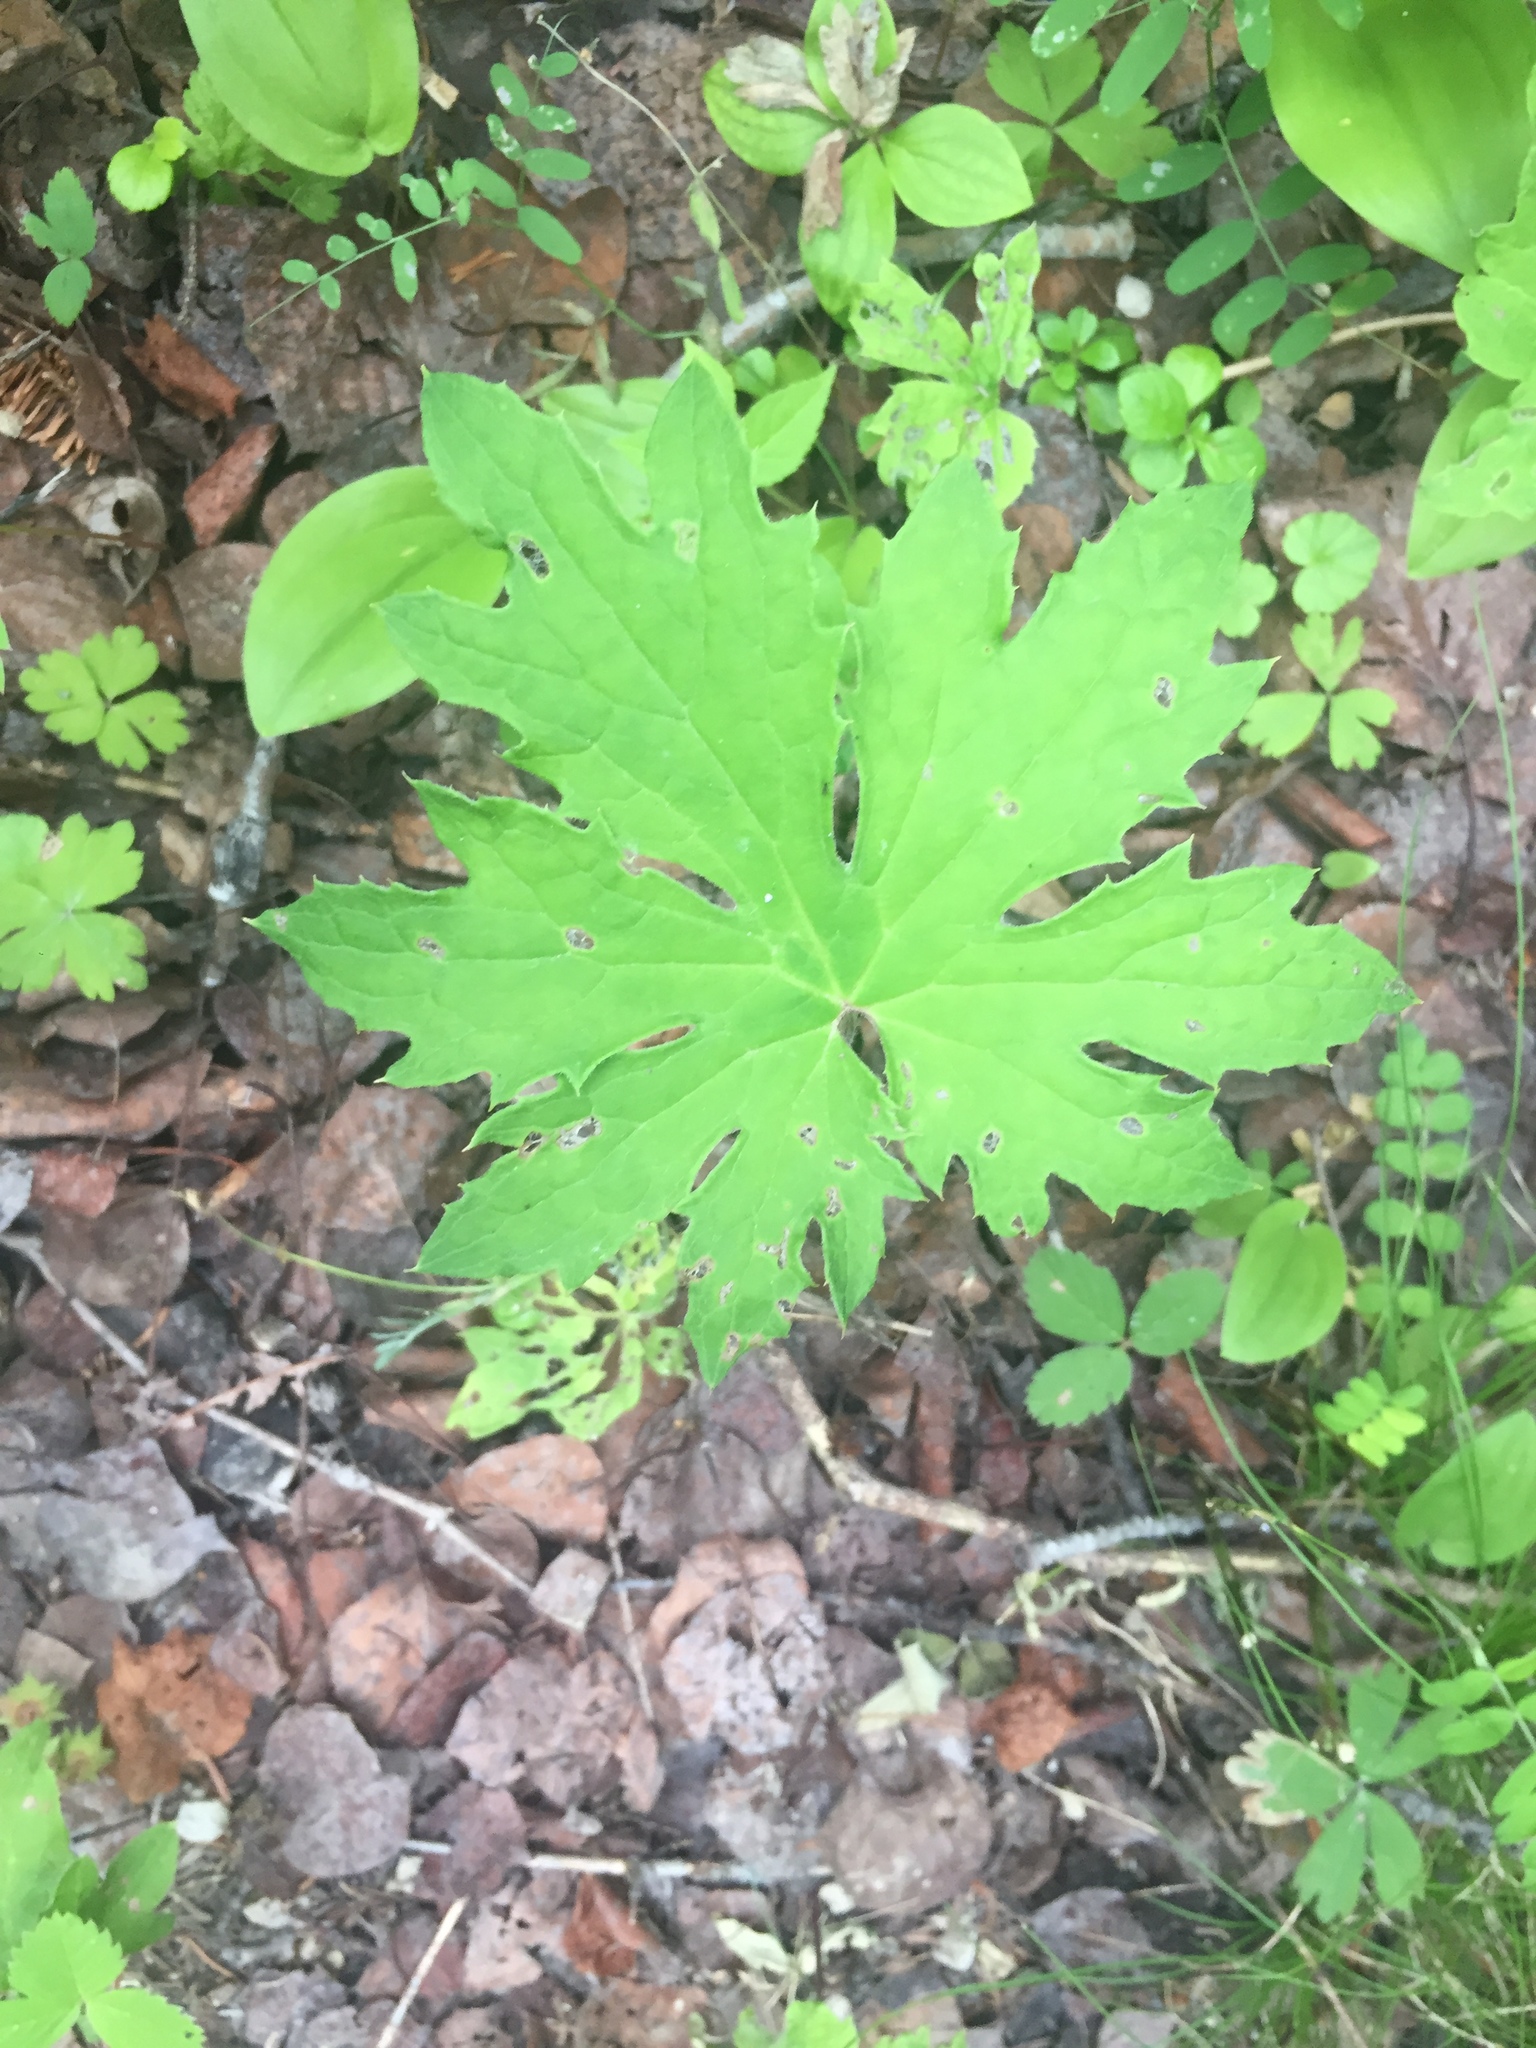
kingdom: Plantae
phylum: Tracheophyta
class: Magnoliopsida
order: Asterales
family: Asteraceae
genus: Petasites
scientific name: Petasites frigidus
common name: Arctic butterbur
